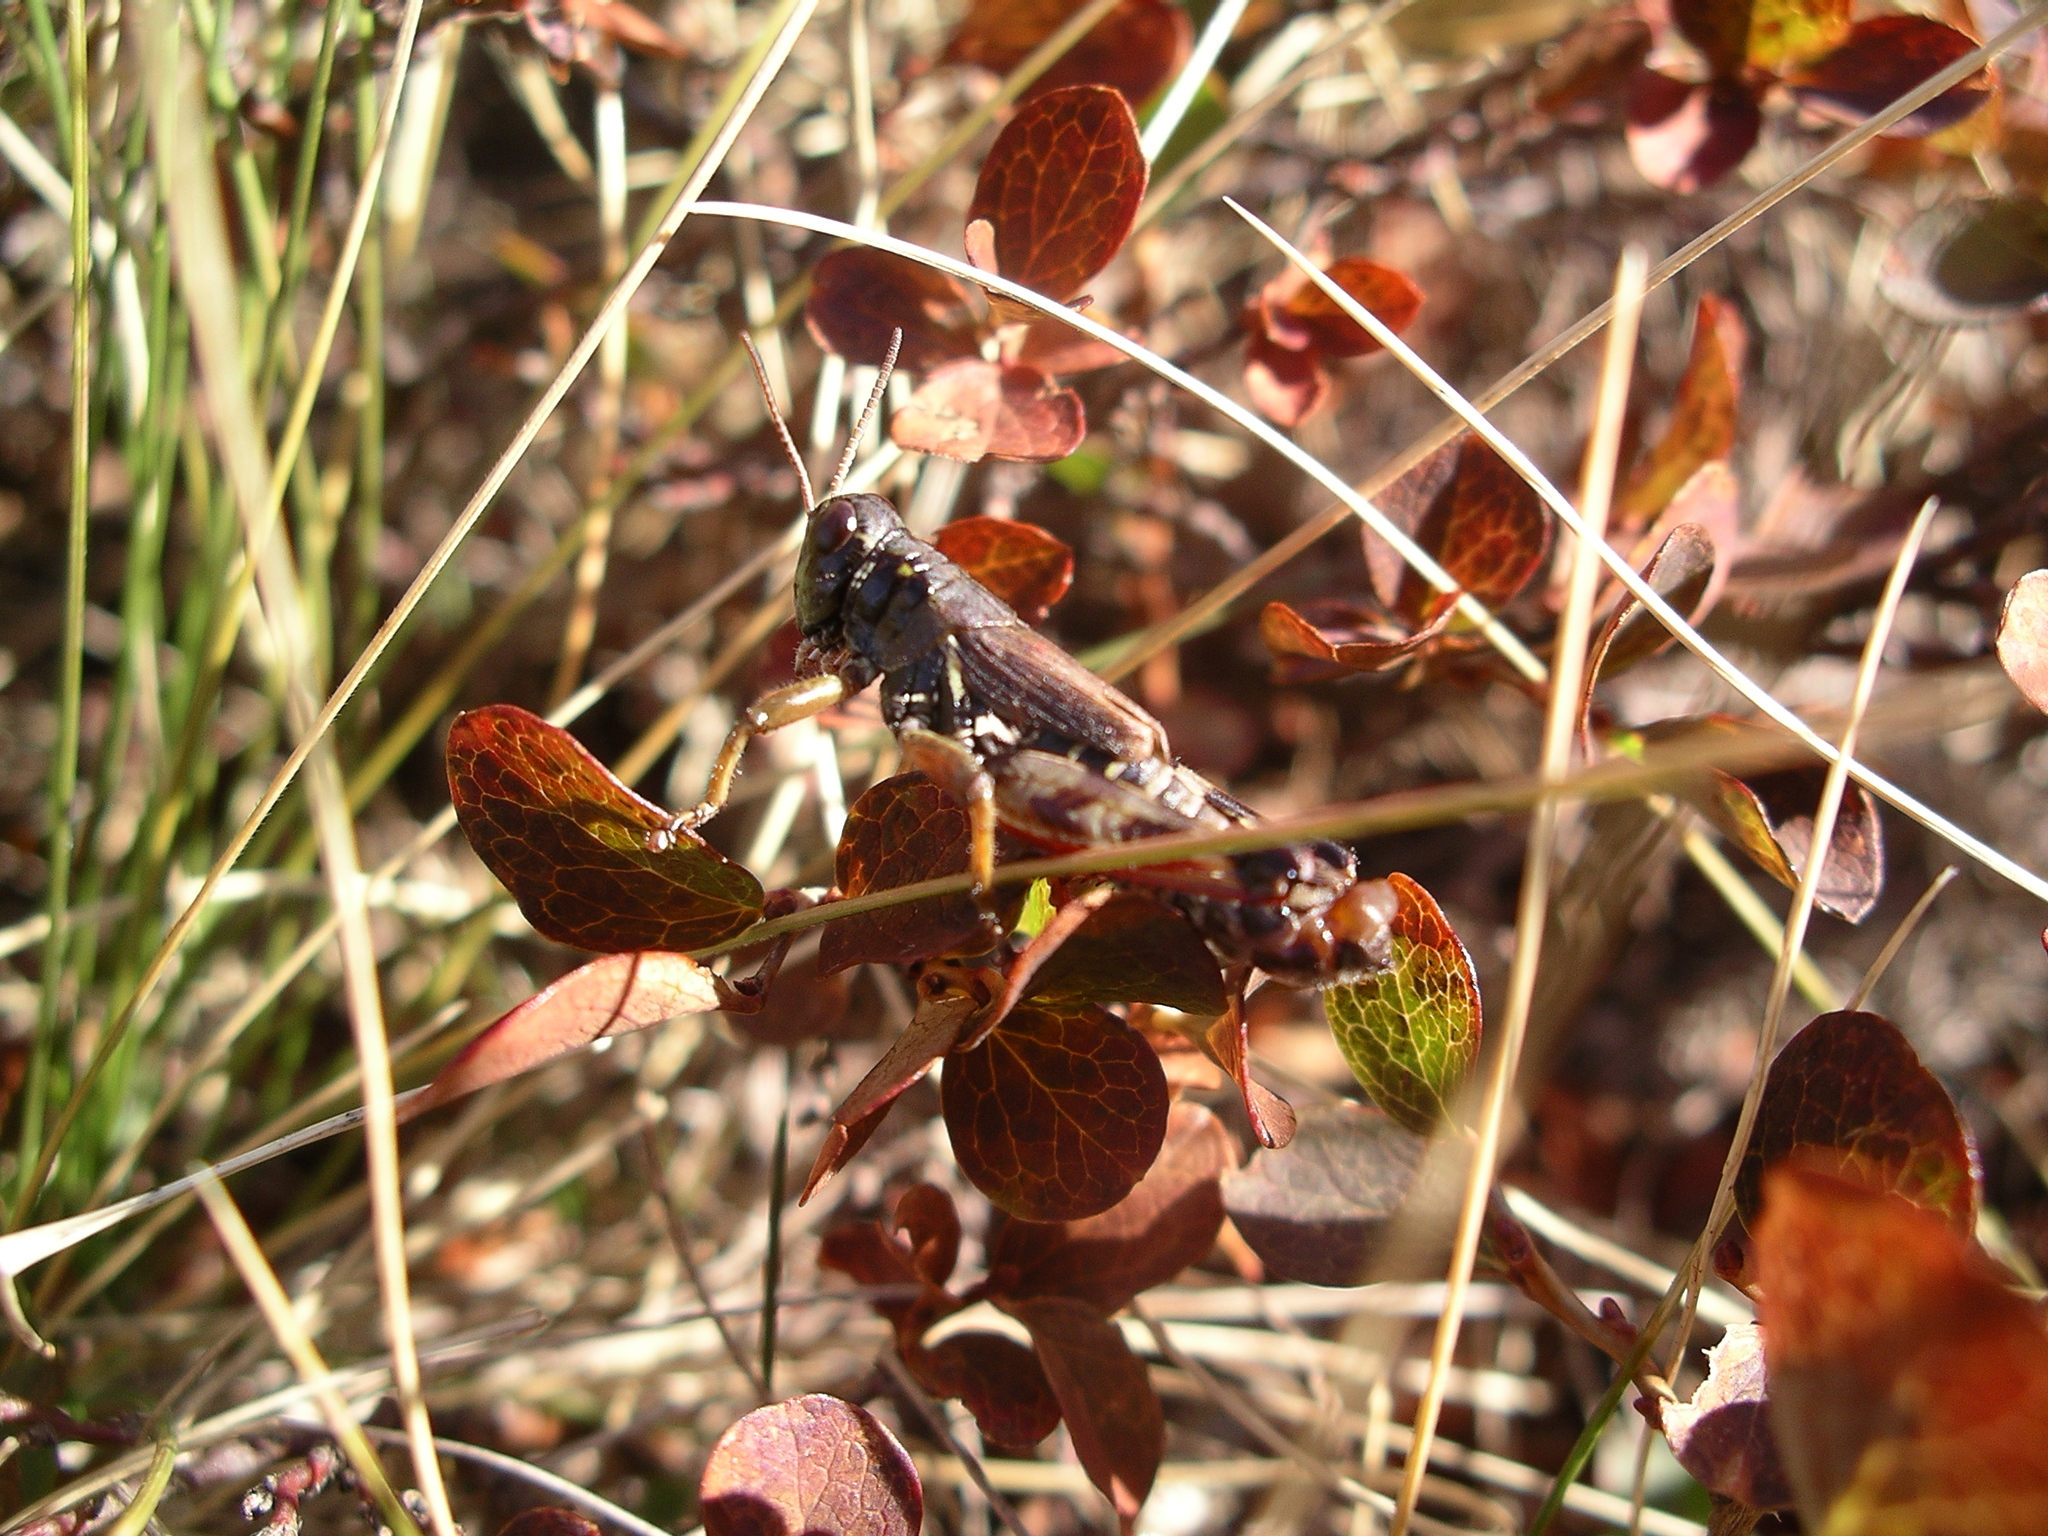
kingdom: Animalia
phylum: Arthropoda
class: Insecta
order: Orthoptera
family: Acrididae
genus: Bohemanella
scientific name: Bohemanella frigida
